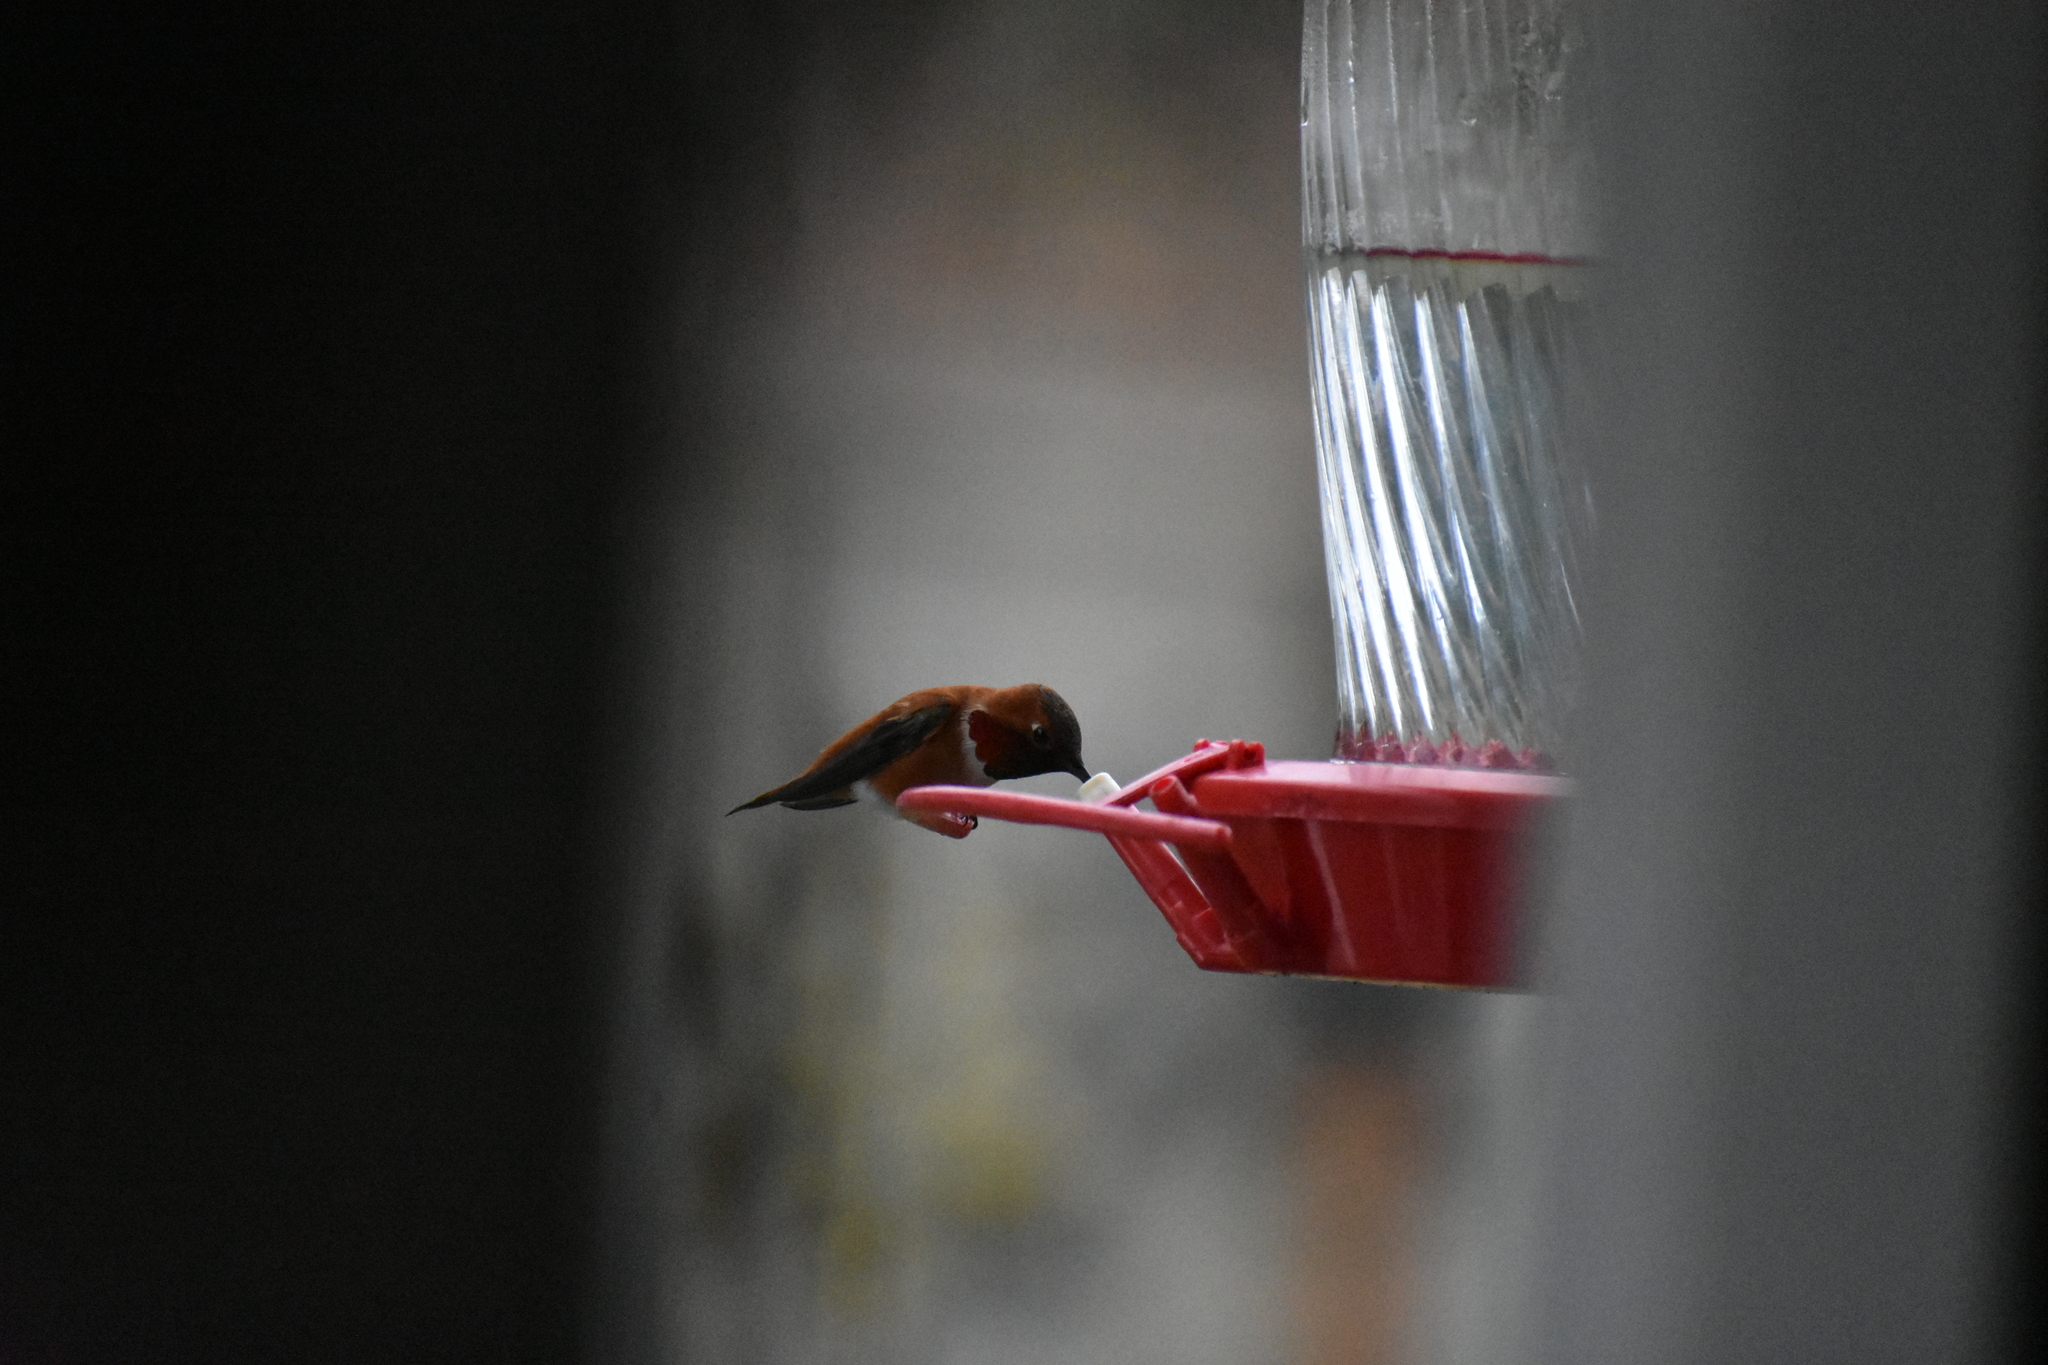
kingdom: Animalia
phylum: Chordata
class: Aves
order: Apodiformes
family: Trochilidae
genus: Selasphorus
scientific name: Selasphorus rufus
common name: Rufous hummingbird
